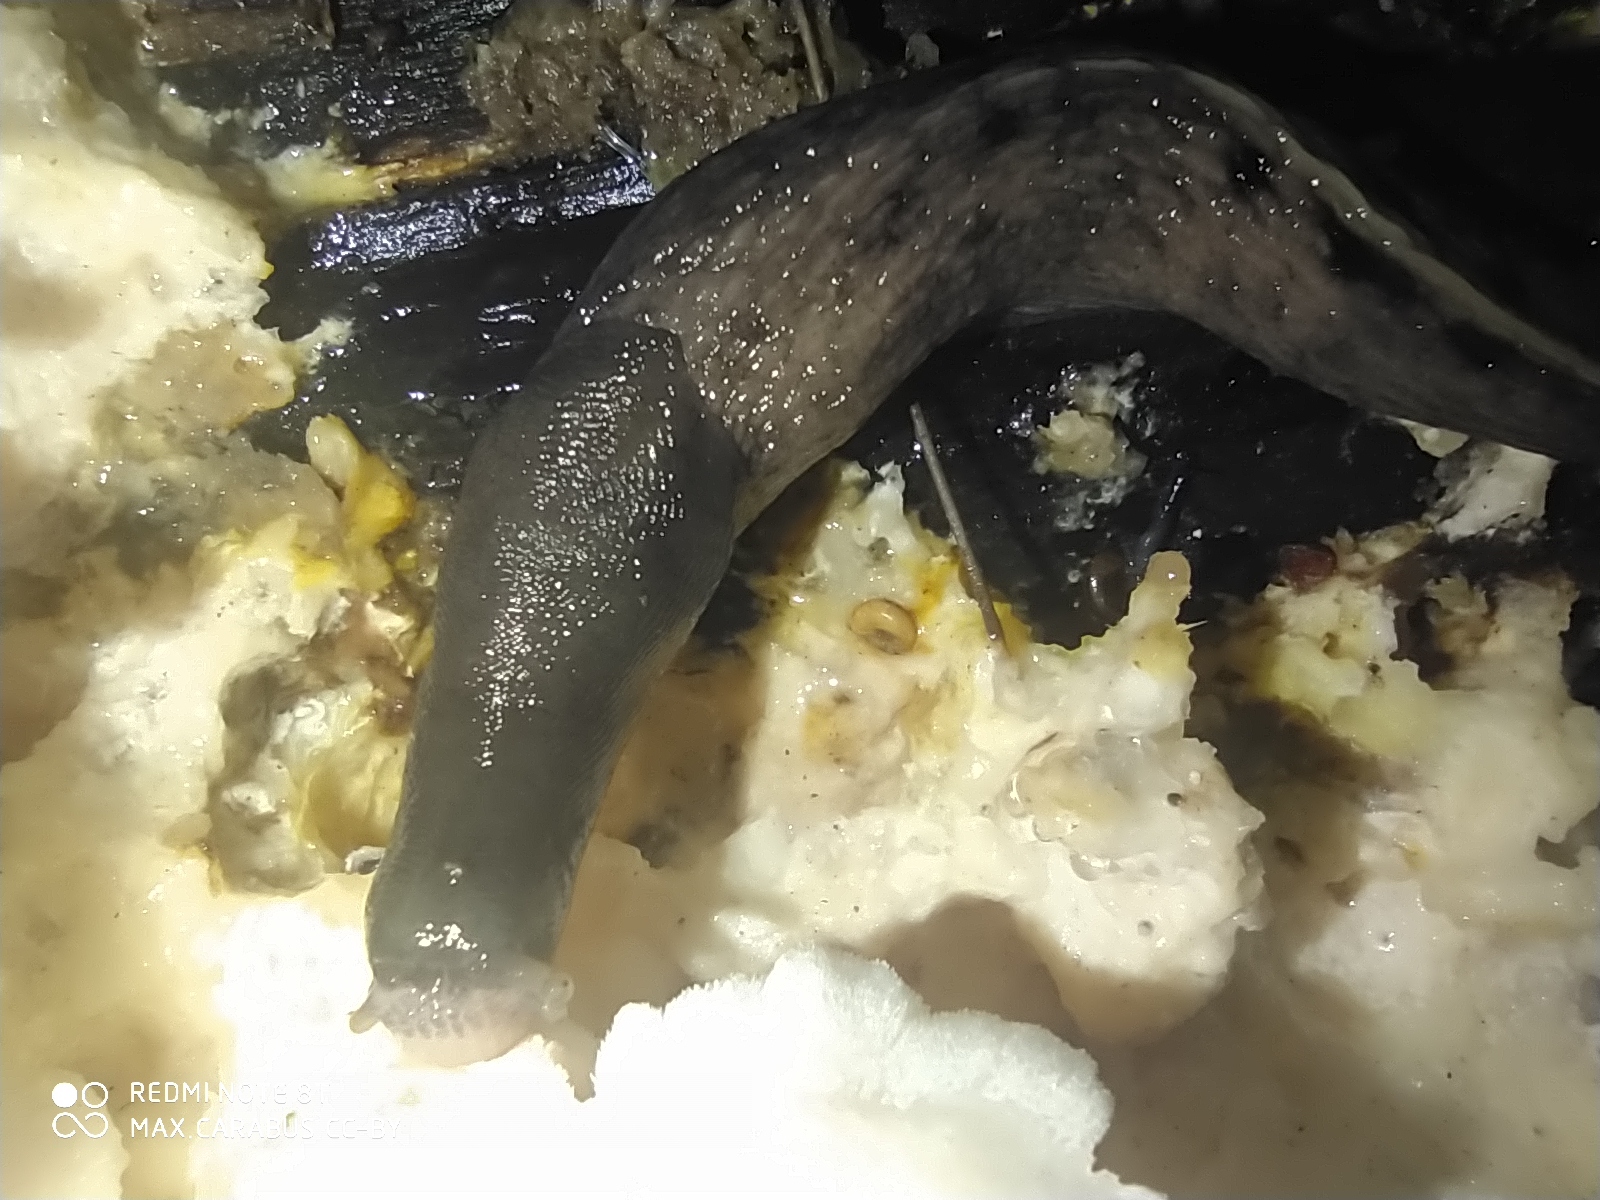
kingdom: Animalia
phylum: Mollusca
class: Gastropoda
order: Stylommatophora
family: Limacidae
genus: Limax
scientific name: Limax cinereoniger
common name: Ash-black slug
